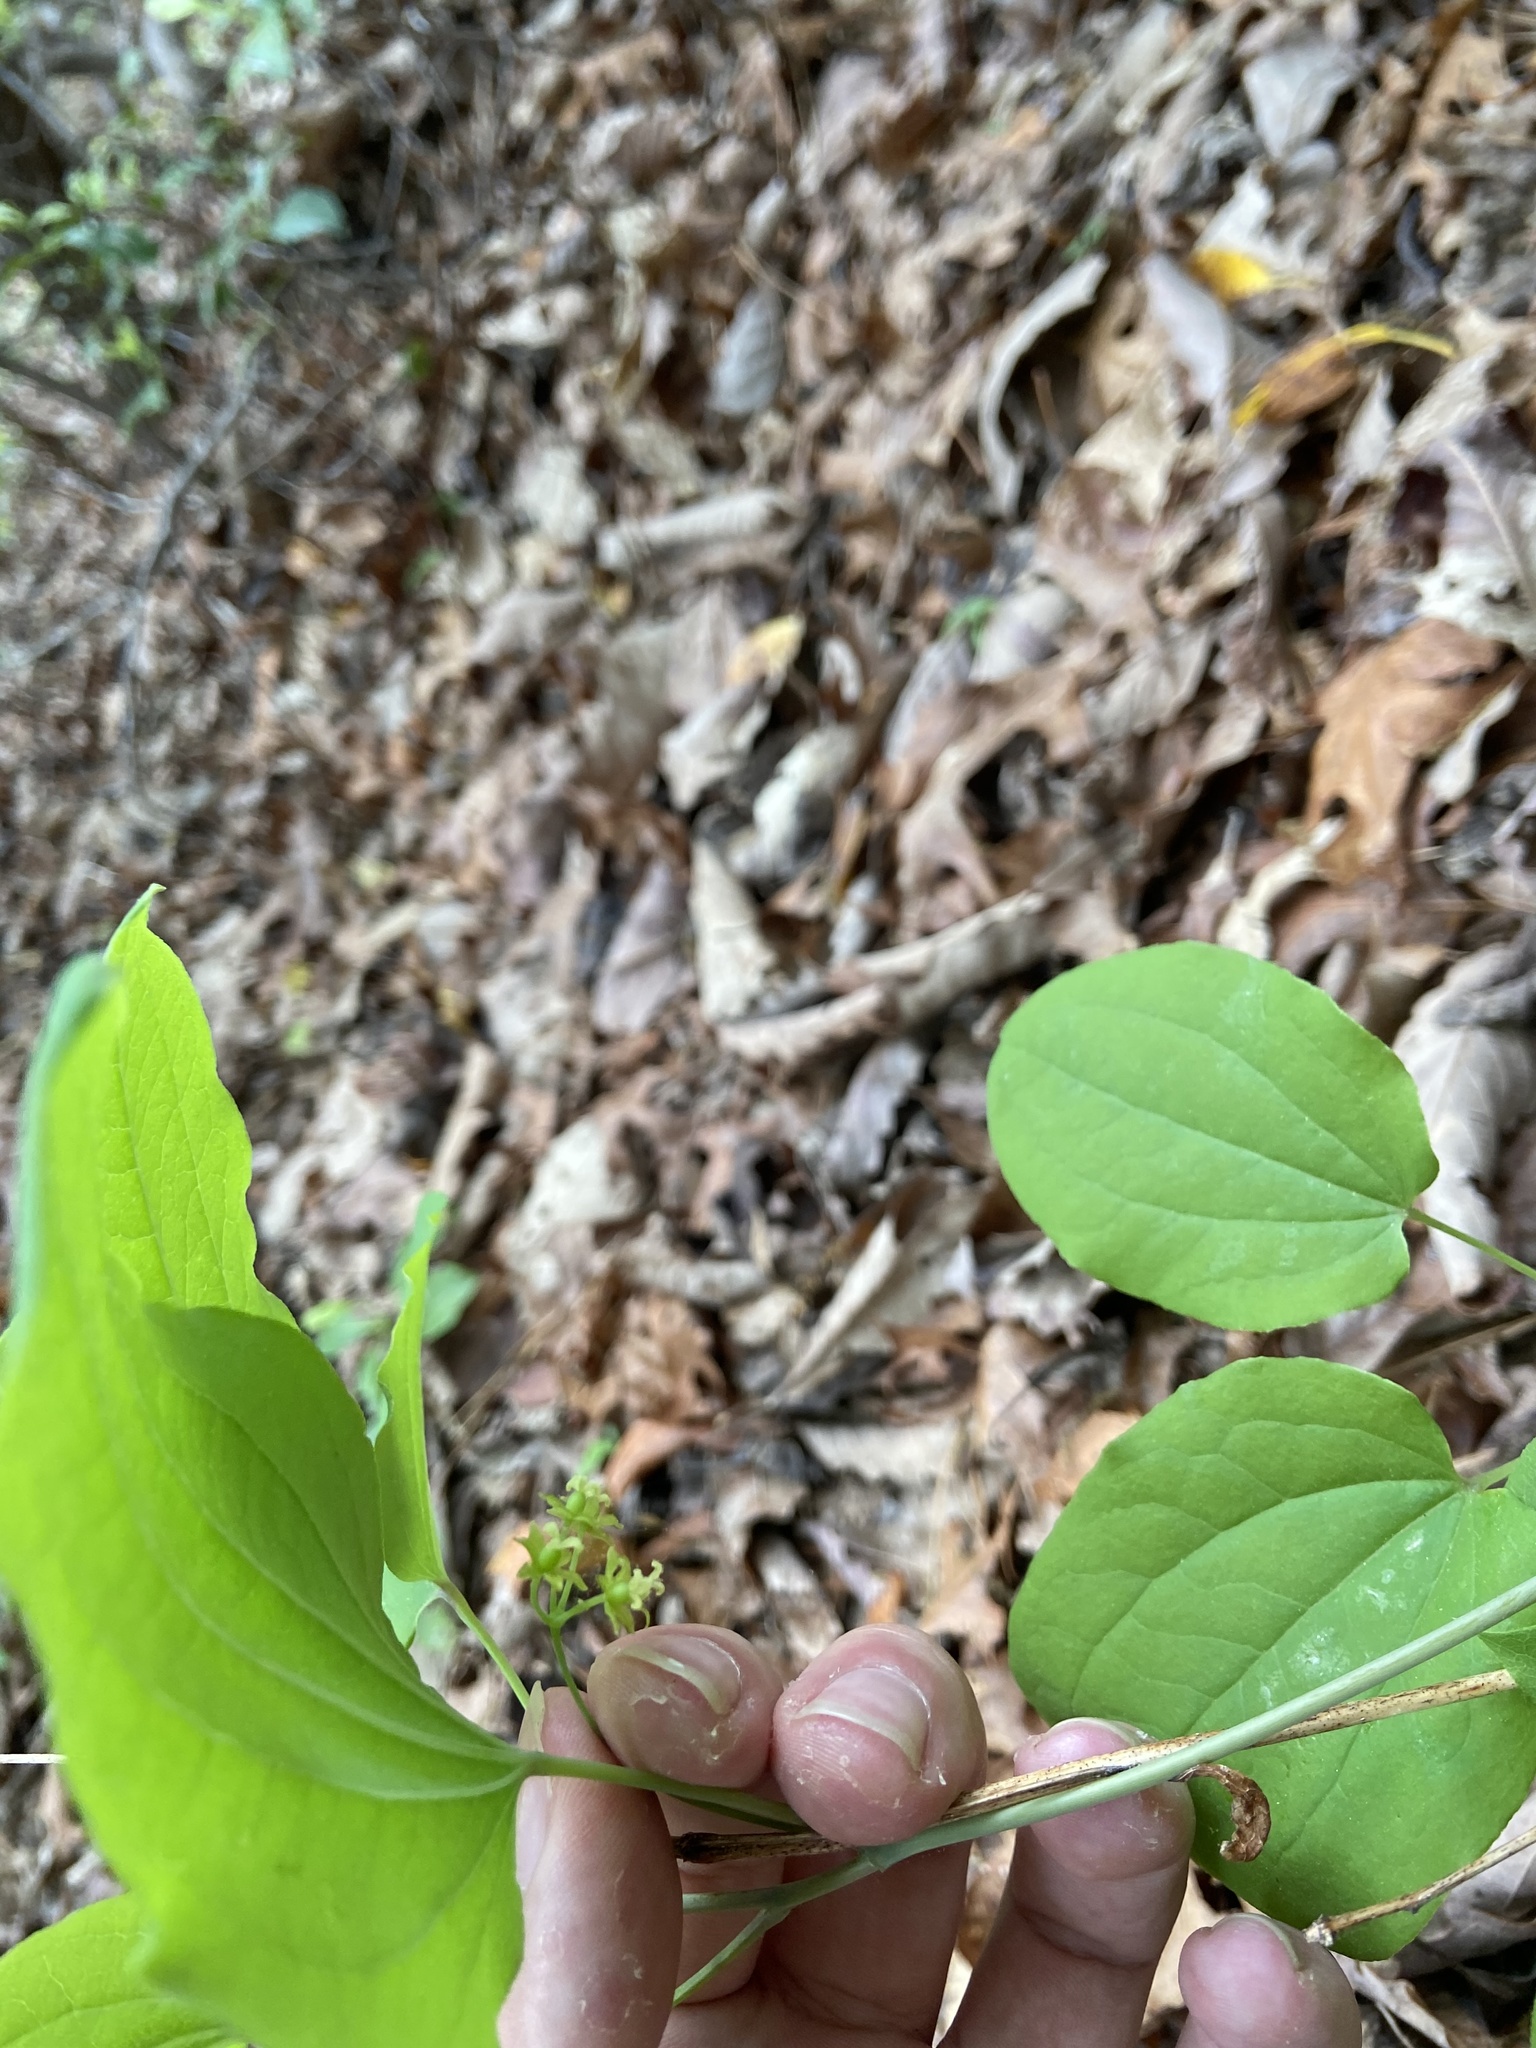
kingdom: Plantae
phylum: Tracheophyta
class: Liliopsida
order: Liliales
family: Smilacaceae
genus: Smilax
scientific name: Smilax biltmoreana
